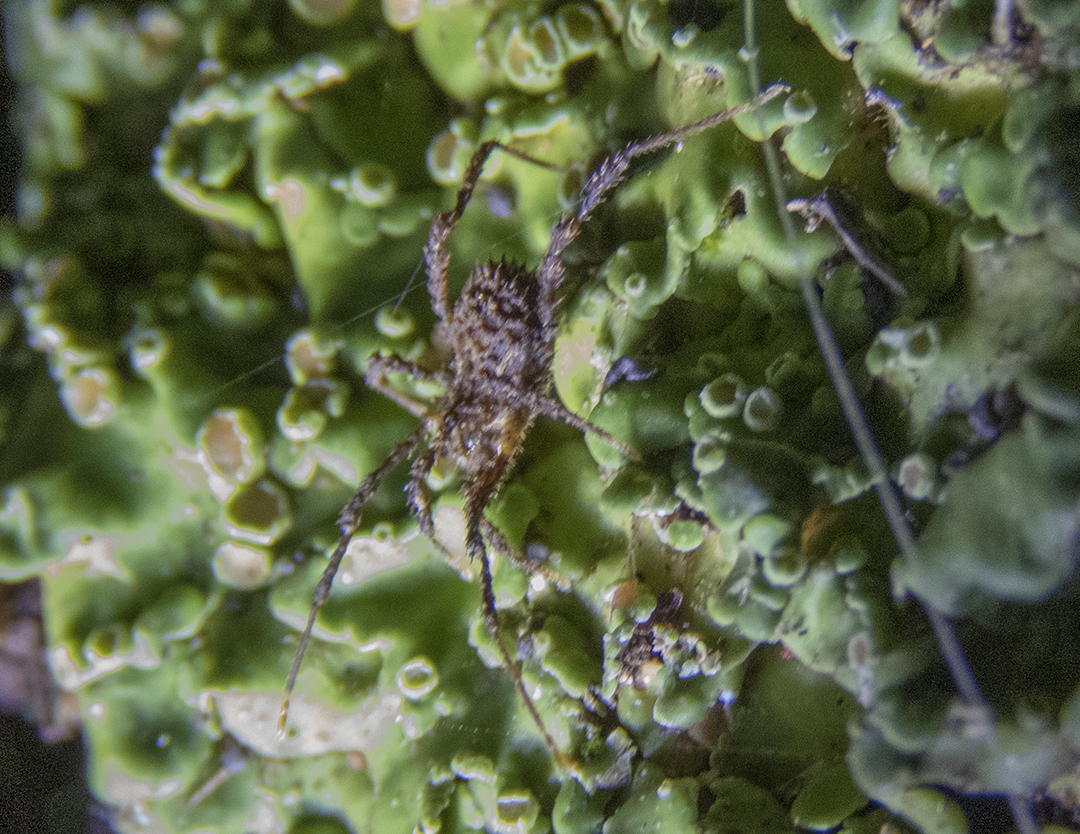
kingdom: Animalia
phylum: Arthropoda
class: Arachnida
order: Opiliones
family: Triaenonychidae
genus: Pristobunus
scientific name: Pristobunus acuminatus
